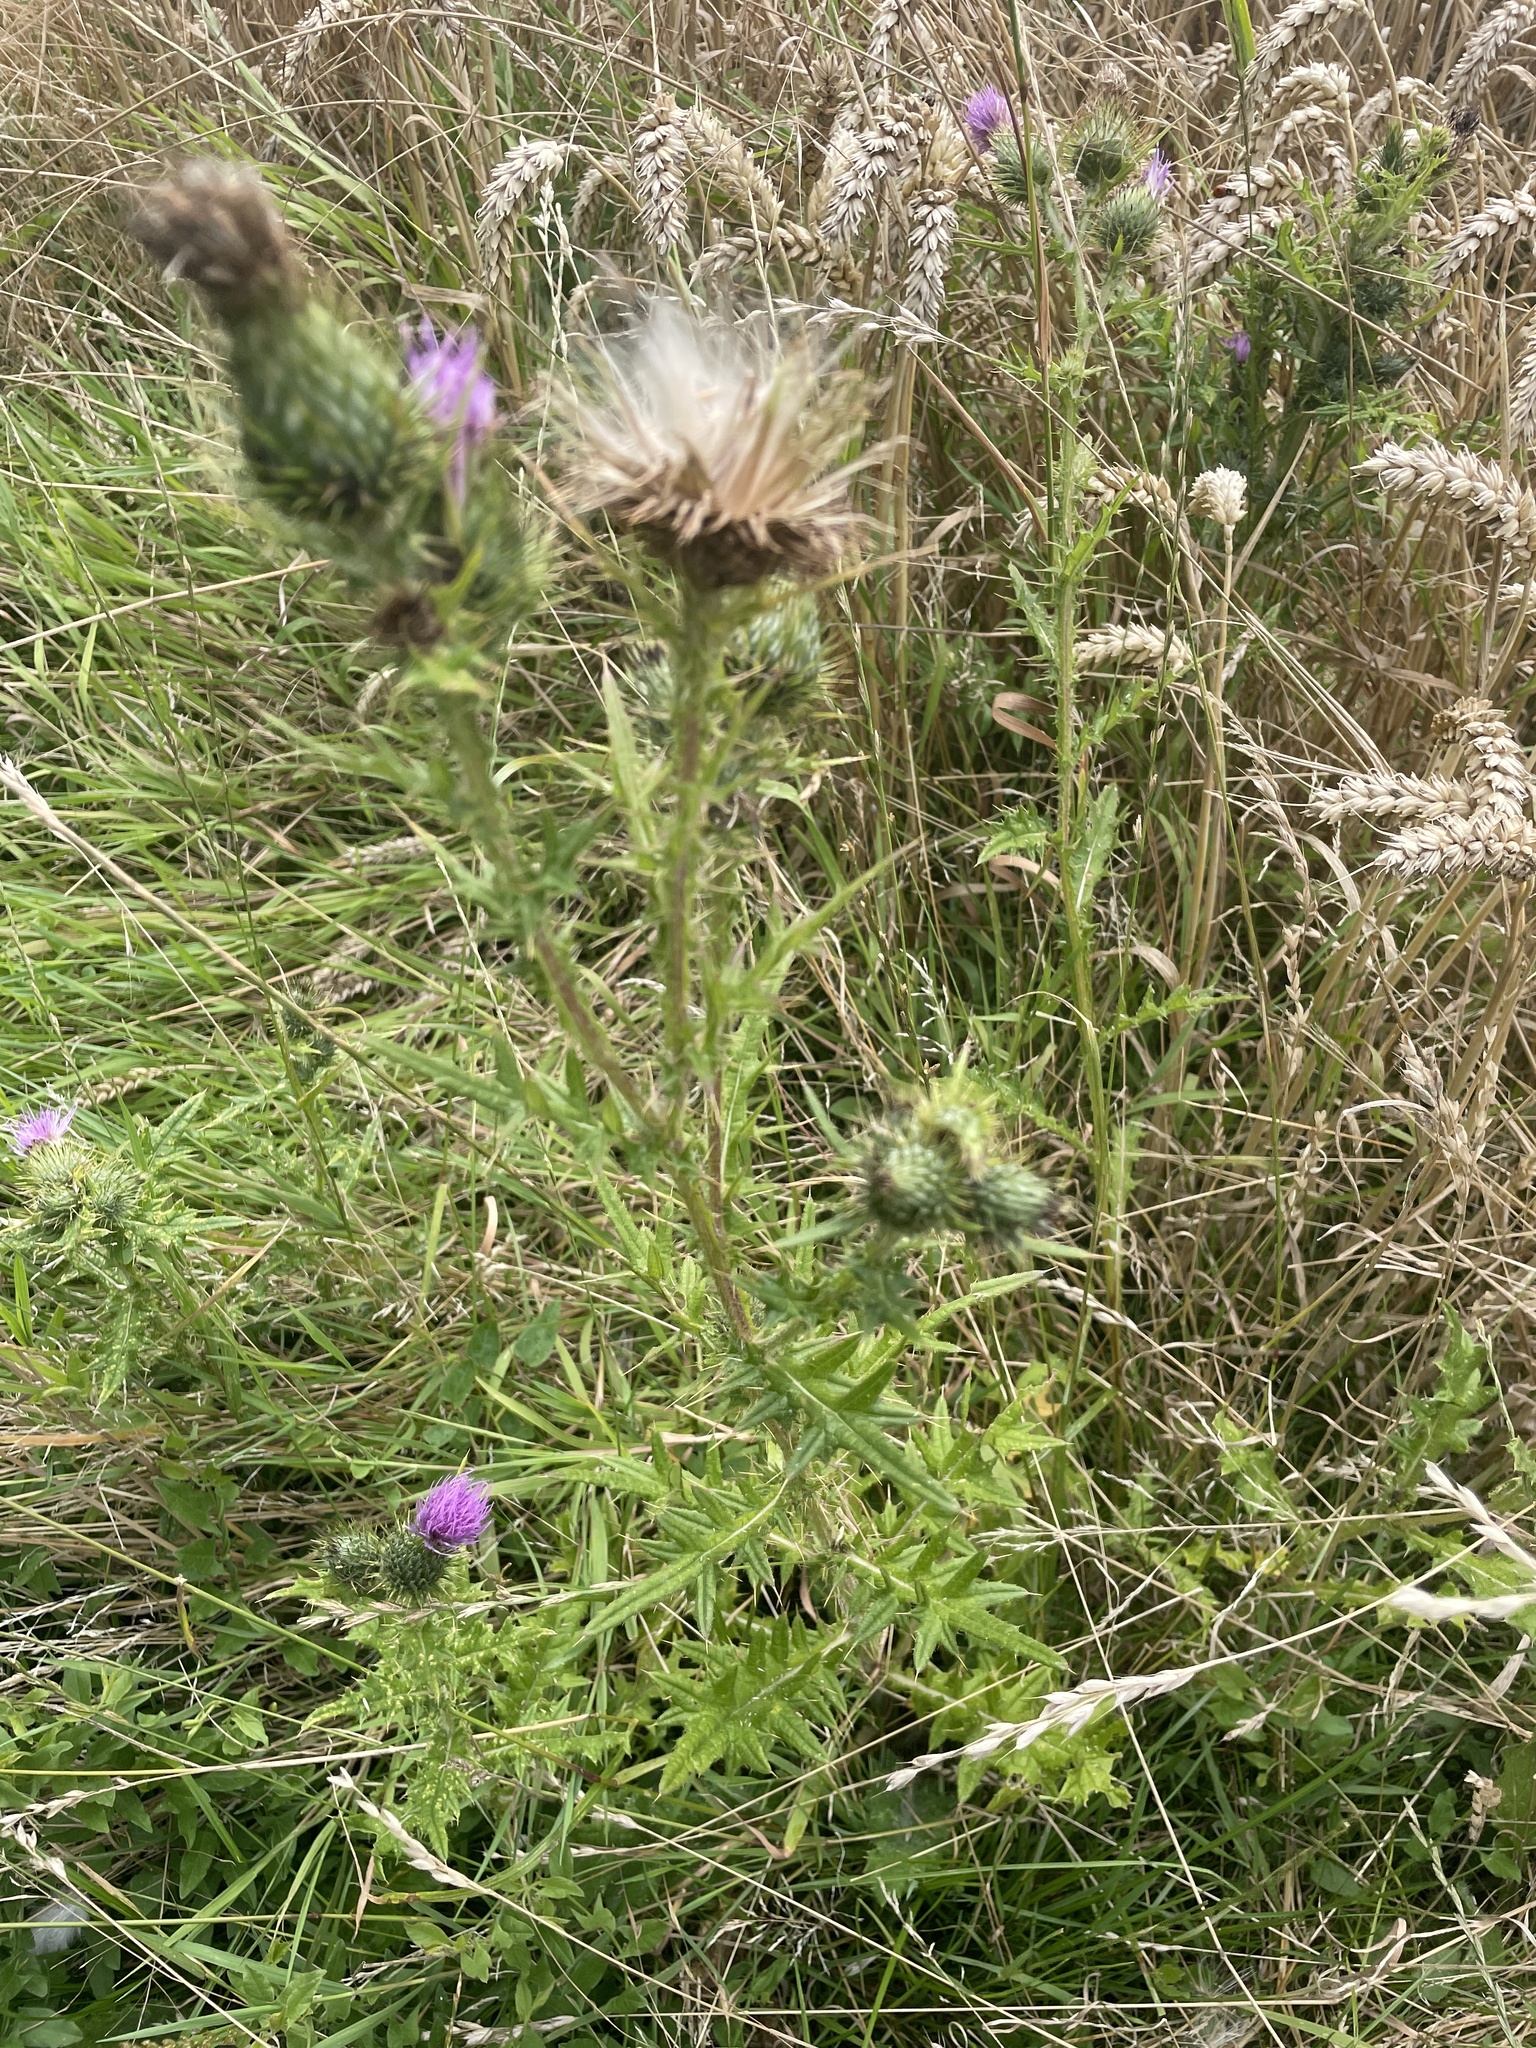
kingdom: Plantae
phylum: Tracheophyta
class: Magnoliopsida
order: Asterales
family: Asteraceae
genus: Cirsium
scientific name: Cirsium vulgare
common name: Bull thistle
